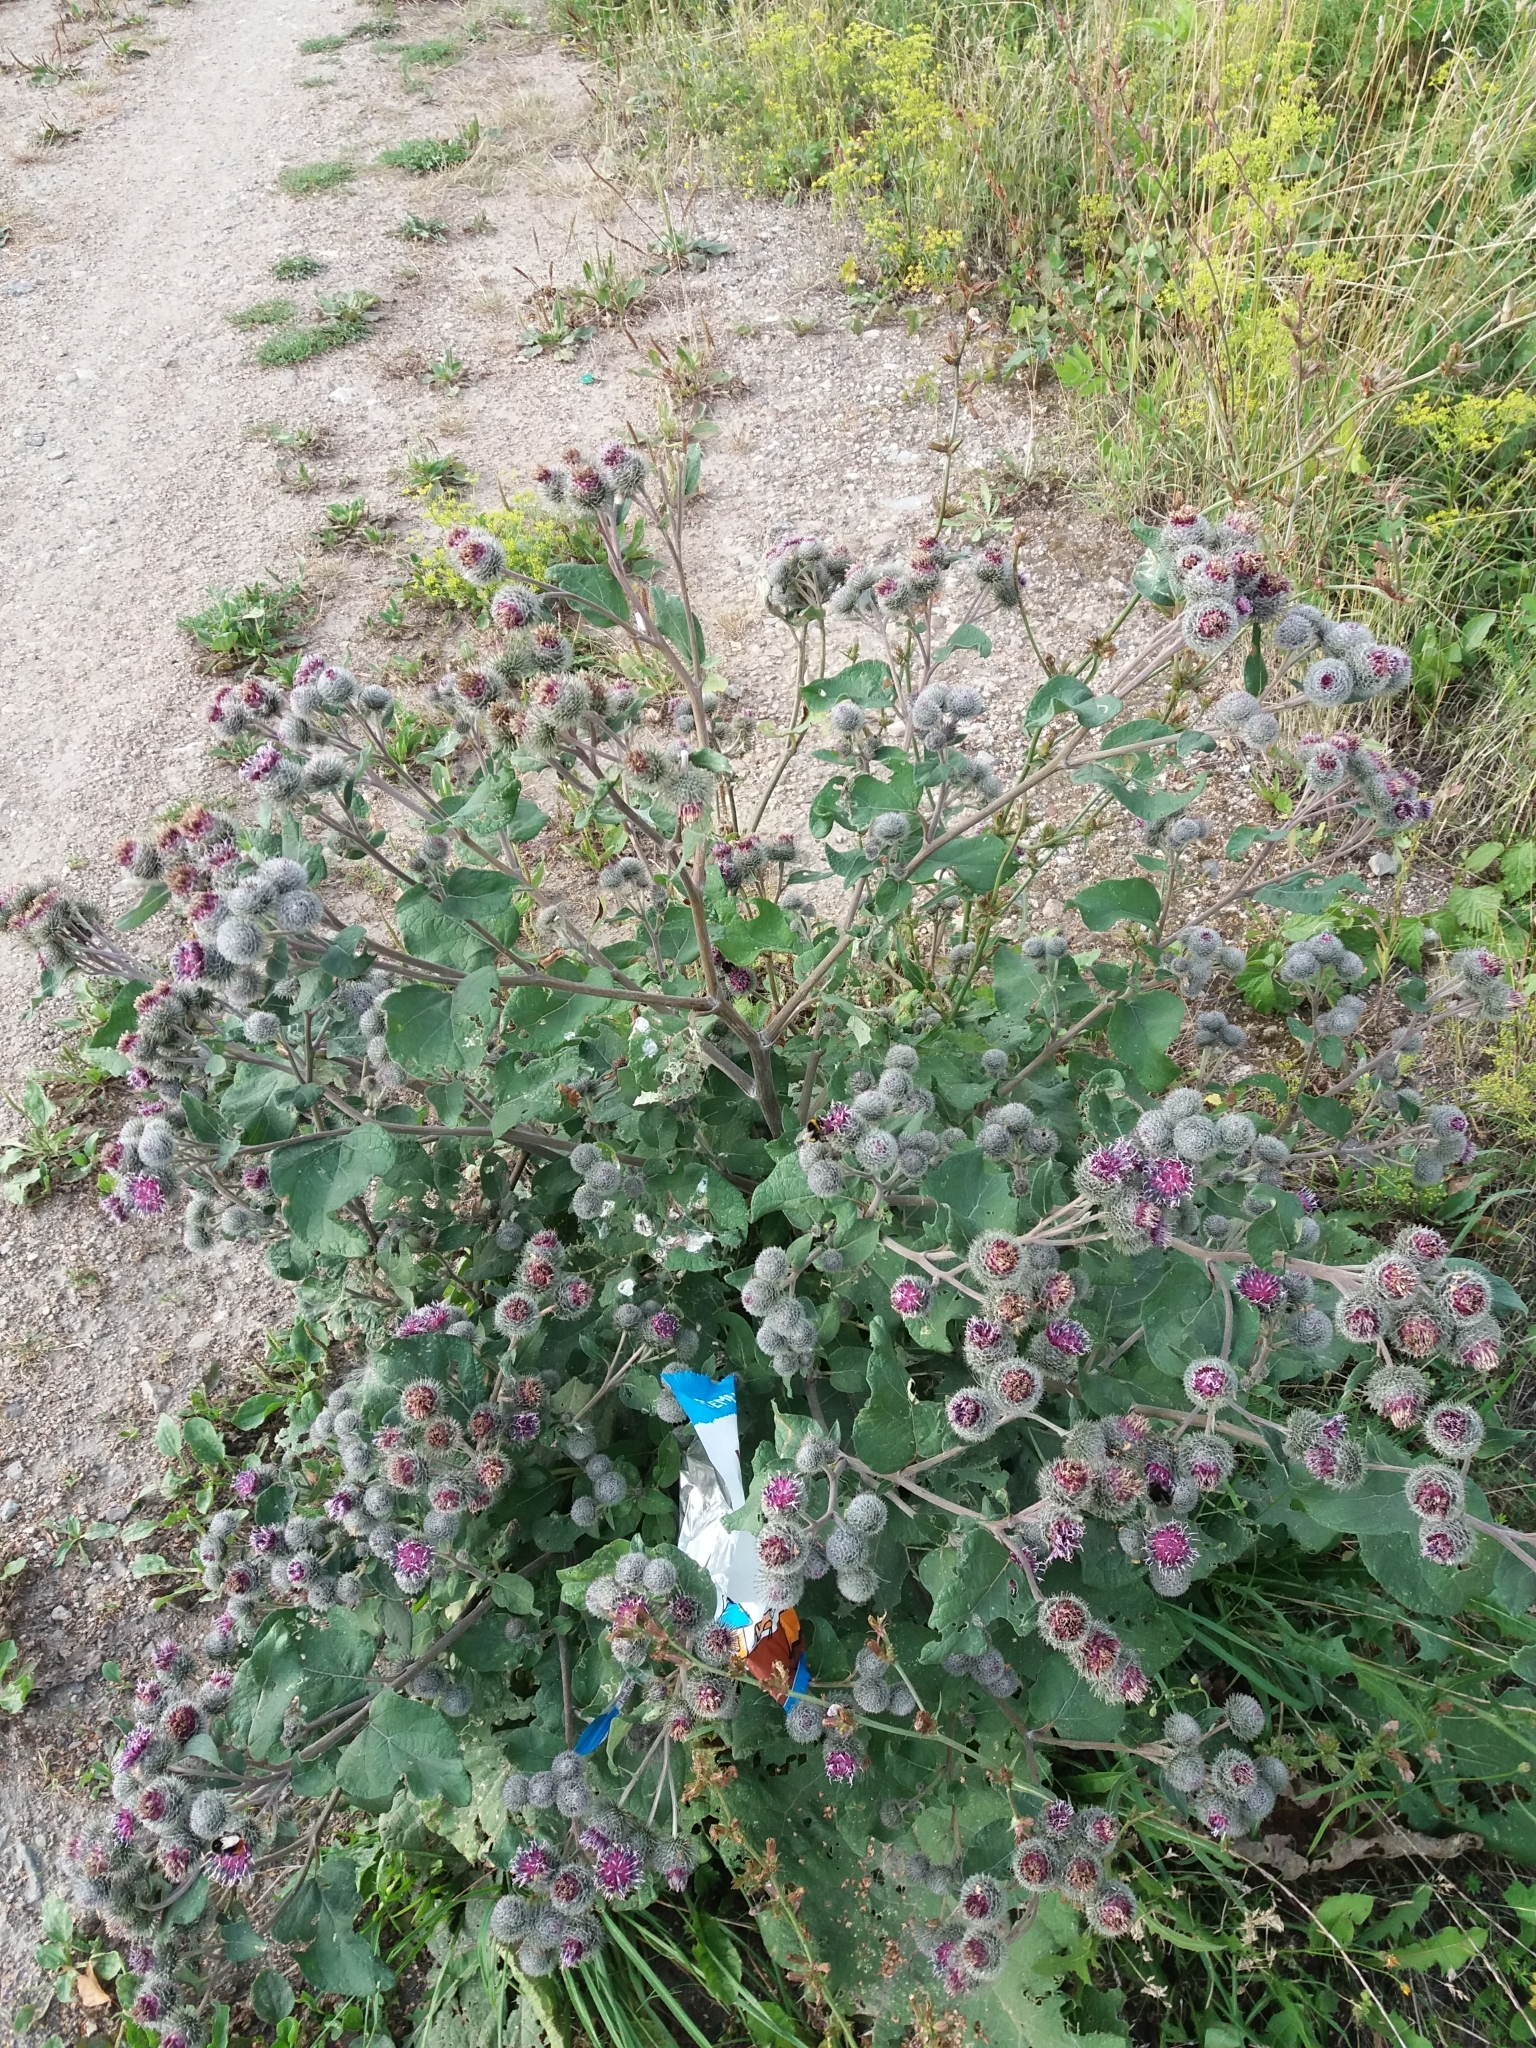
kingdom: Plantae
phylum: Tracheophyta
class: Magnoliopsida
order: Asterales
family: Asteraceae
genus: Arctium
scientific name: Arctium tomentosum
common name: Woolly burdock
